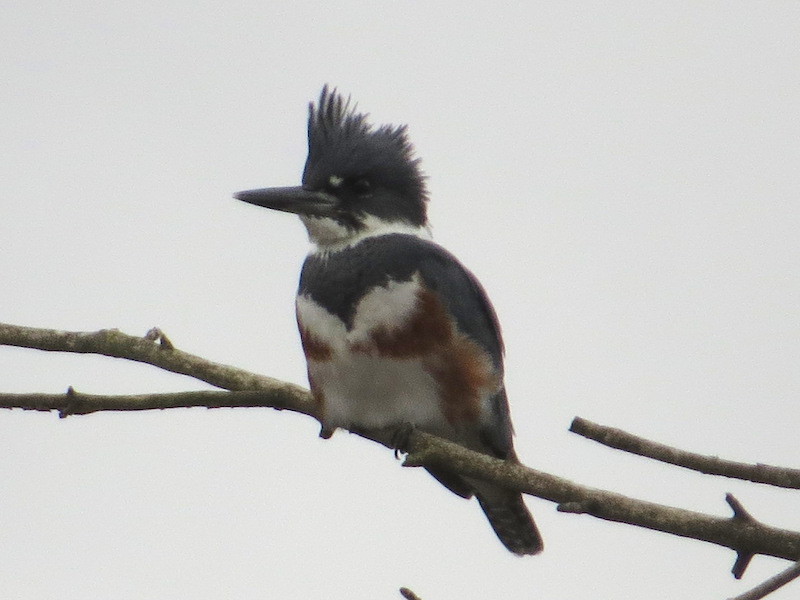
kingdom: Animalia
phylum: Chordata
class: Aves
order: Coraciiformes
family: Alcedinidae
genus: Megaceryle
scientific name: Megaceryle alcyon
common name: Belted kingfisher
